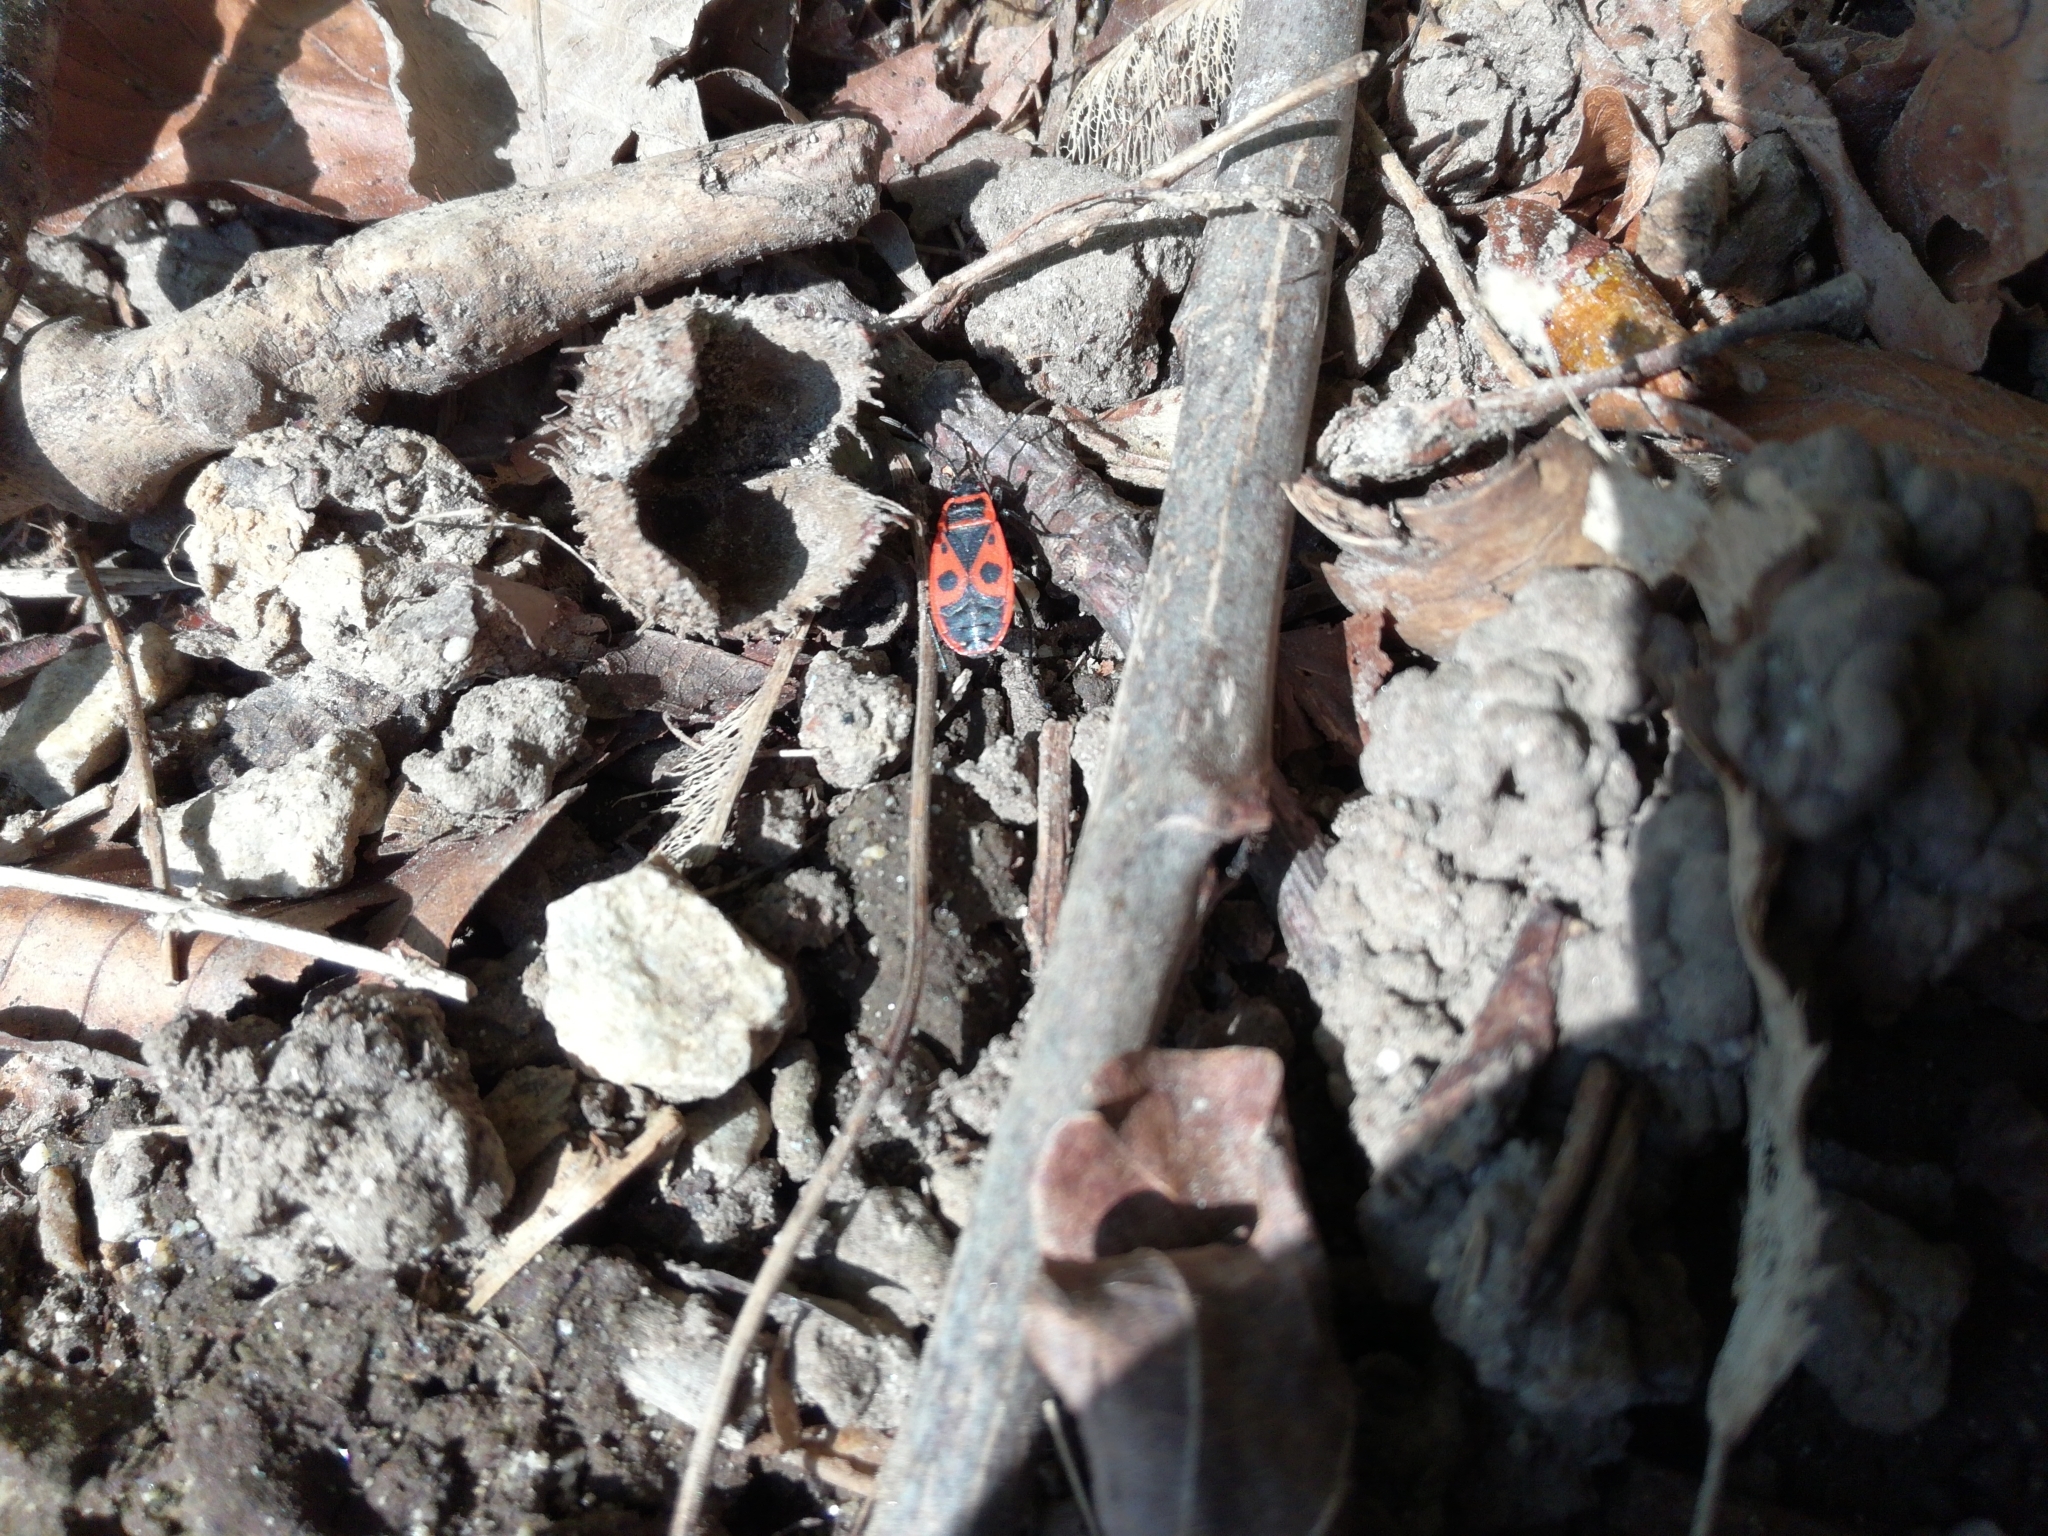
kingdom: Animalia
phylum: Arthropoda
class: Insecta
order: Hemiptera
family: Pyrrhocoridae
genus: Pyrrhocoris
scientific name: Pyrrhocoris apterus
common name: Firebug
